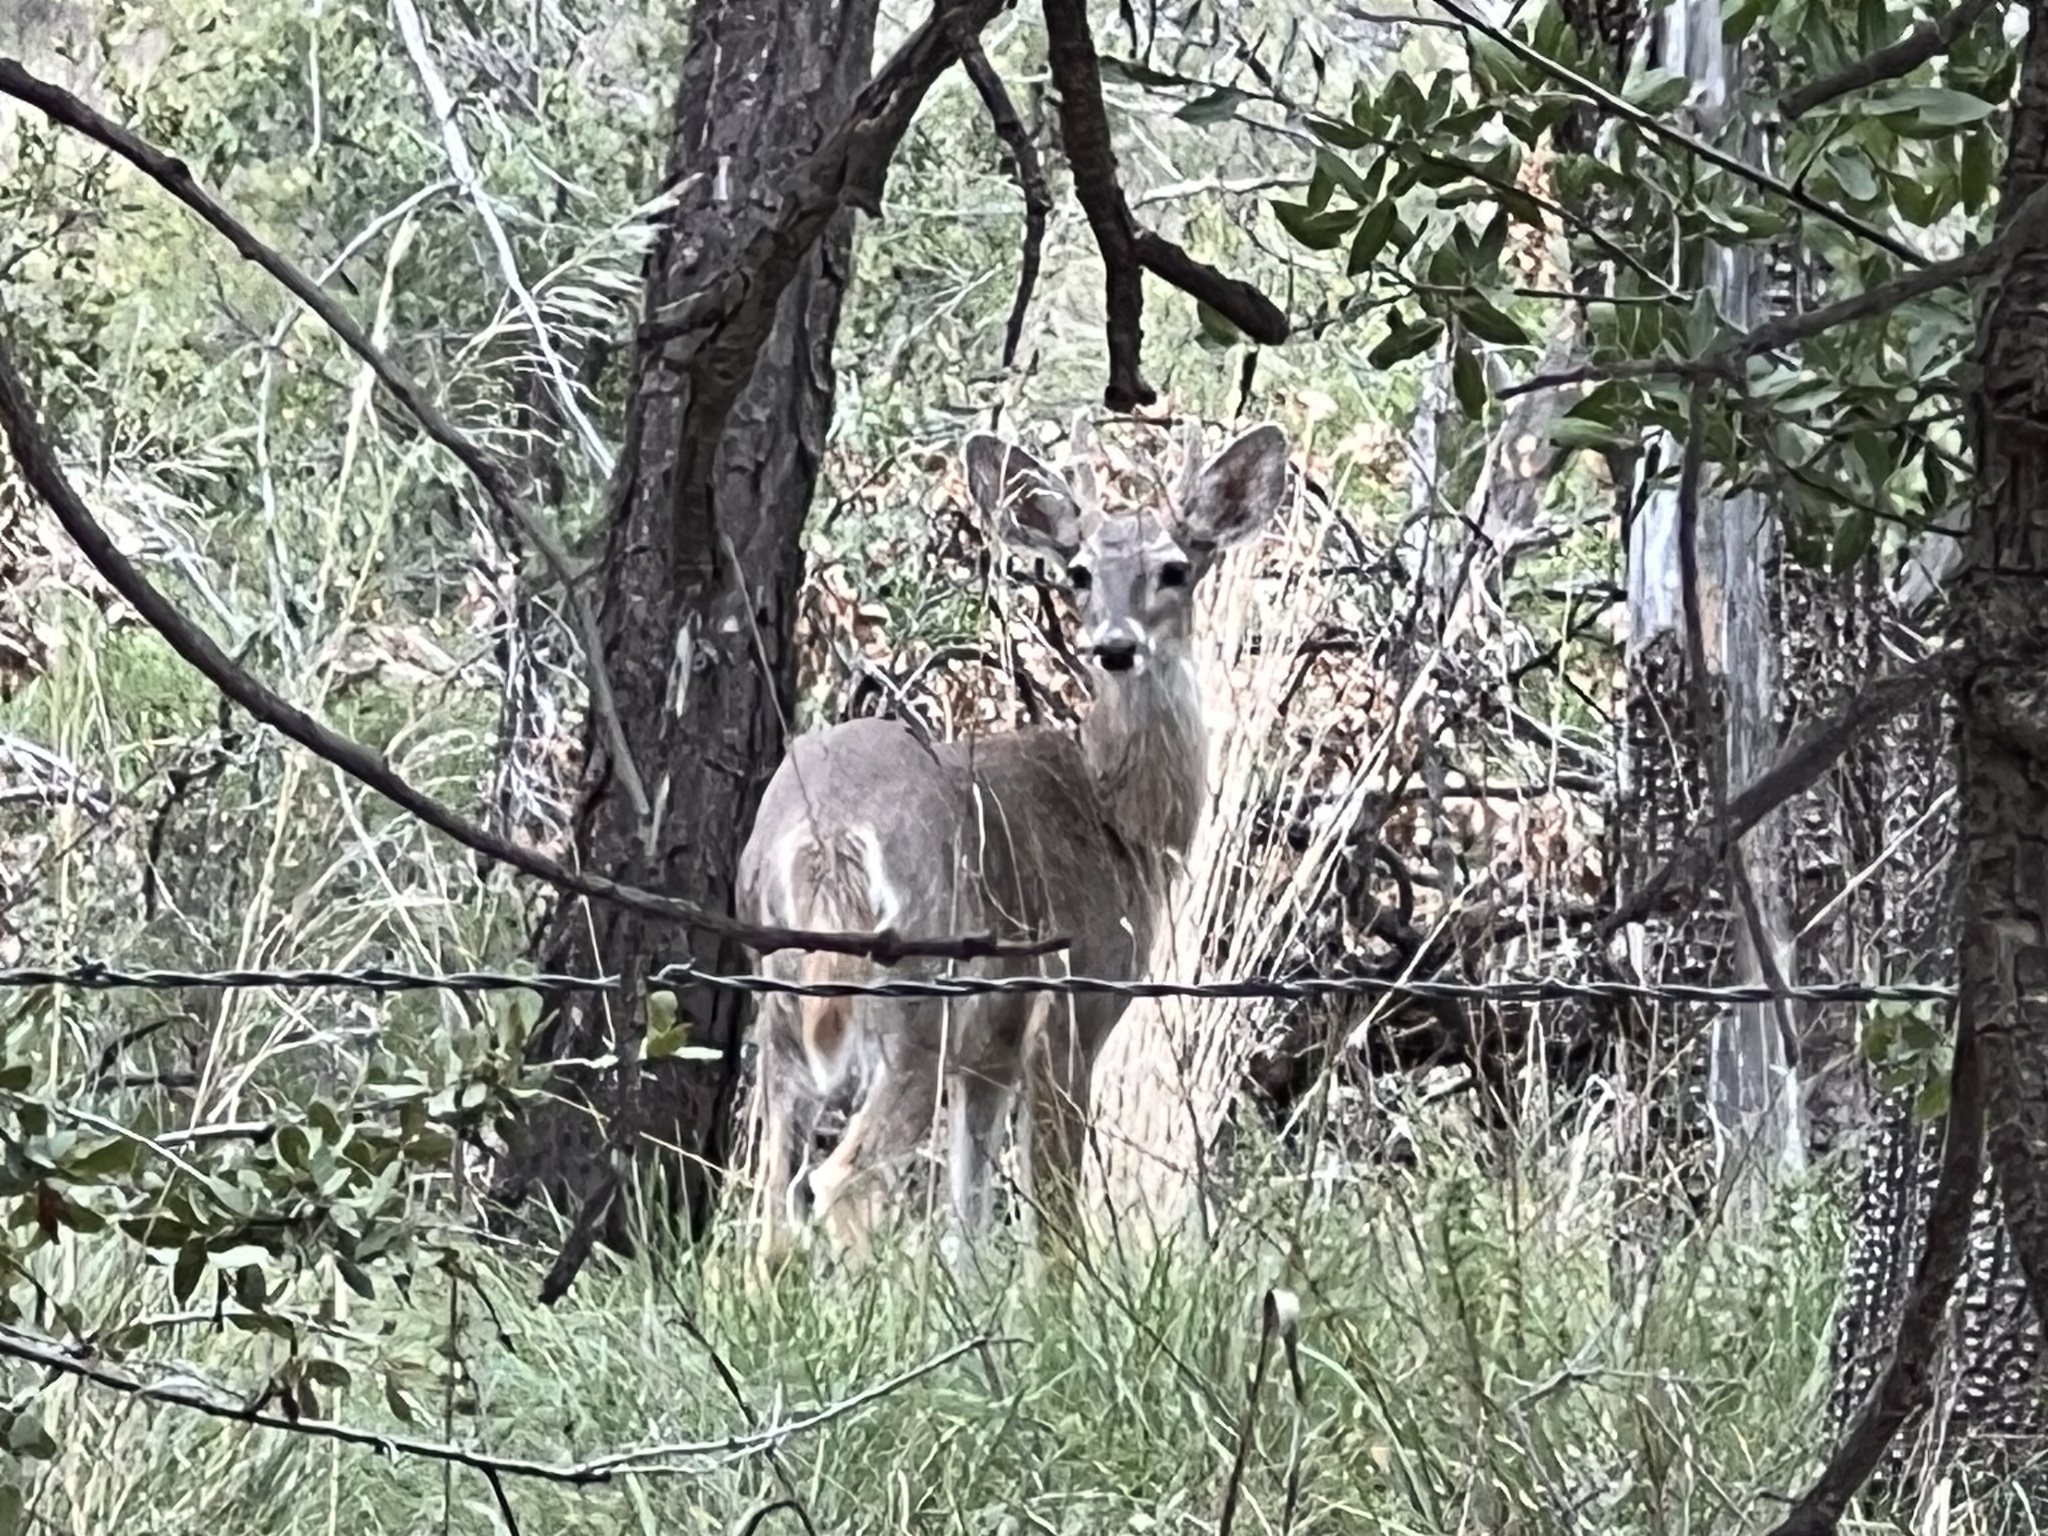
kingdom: Animalia
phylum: Chordata
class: Mammalia
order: Artiodactyla
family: Cervidae
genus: Odocoileus
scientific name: Odocoileus virginianus
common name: White-tailed deer
